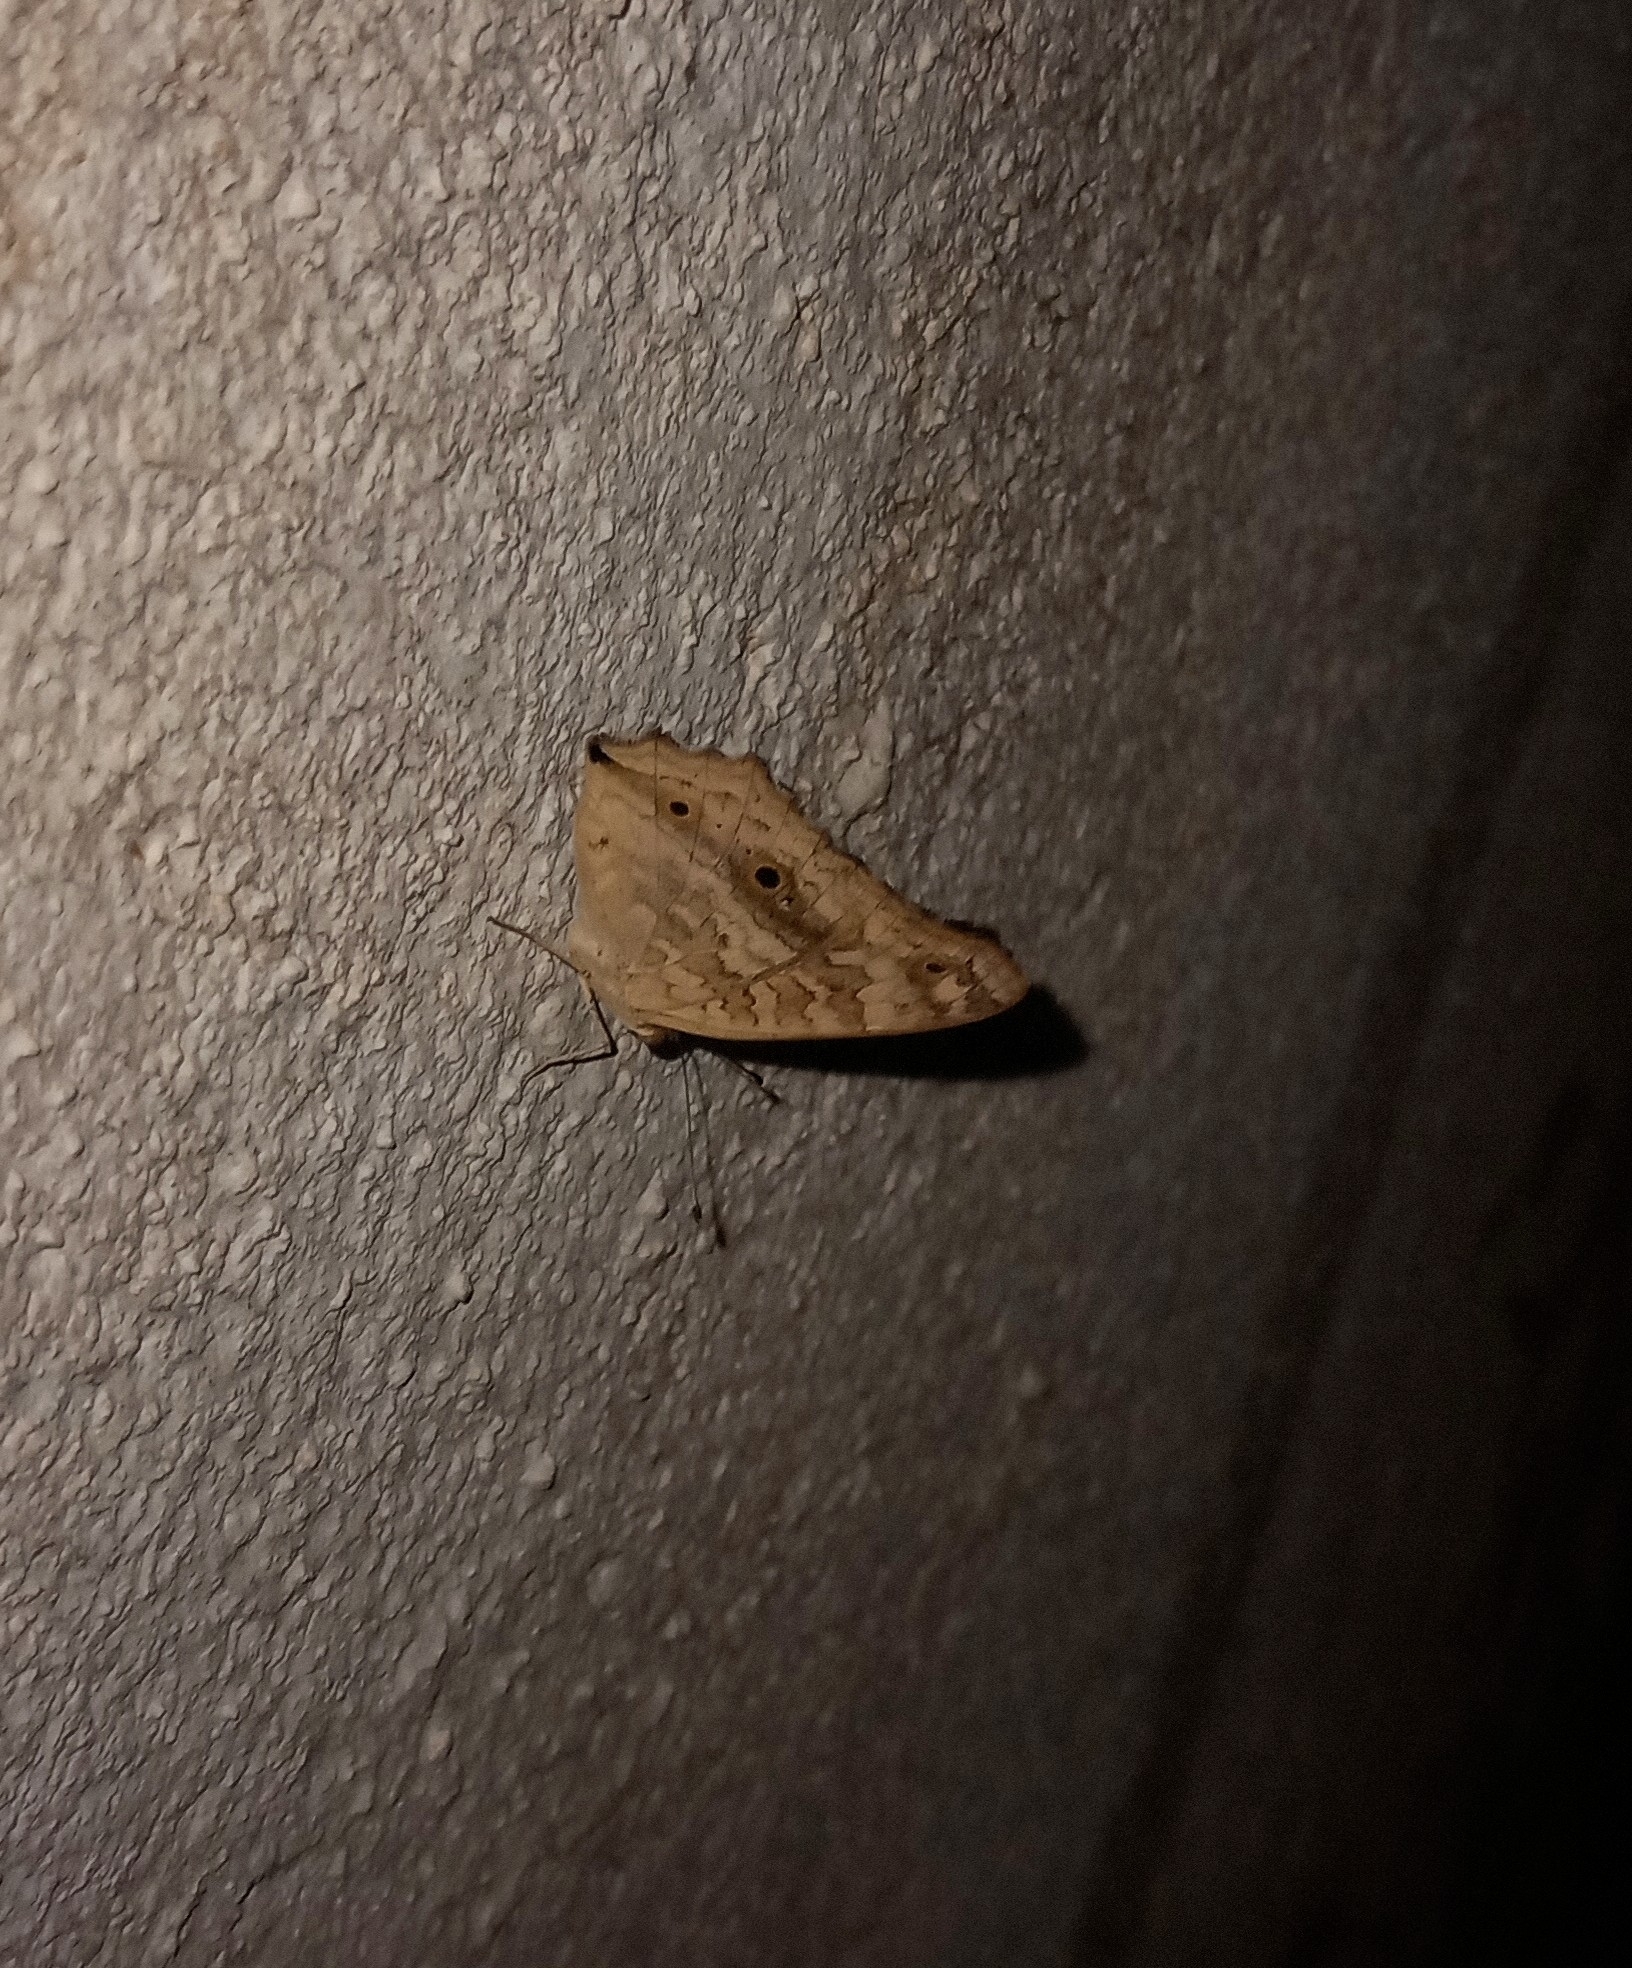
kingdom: Animalia
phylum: Arthropoda
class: Insecta
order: Lepidoptera
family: Nymphalidae
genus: Junonia
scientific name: Junonia lemonias
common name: Lemon pansy
